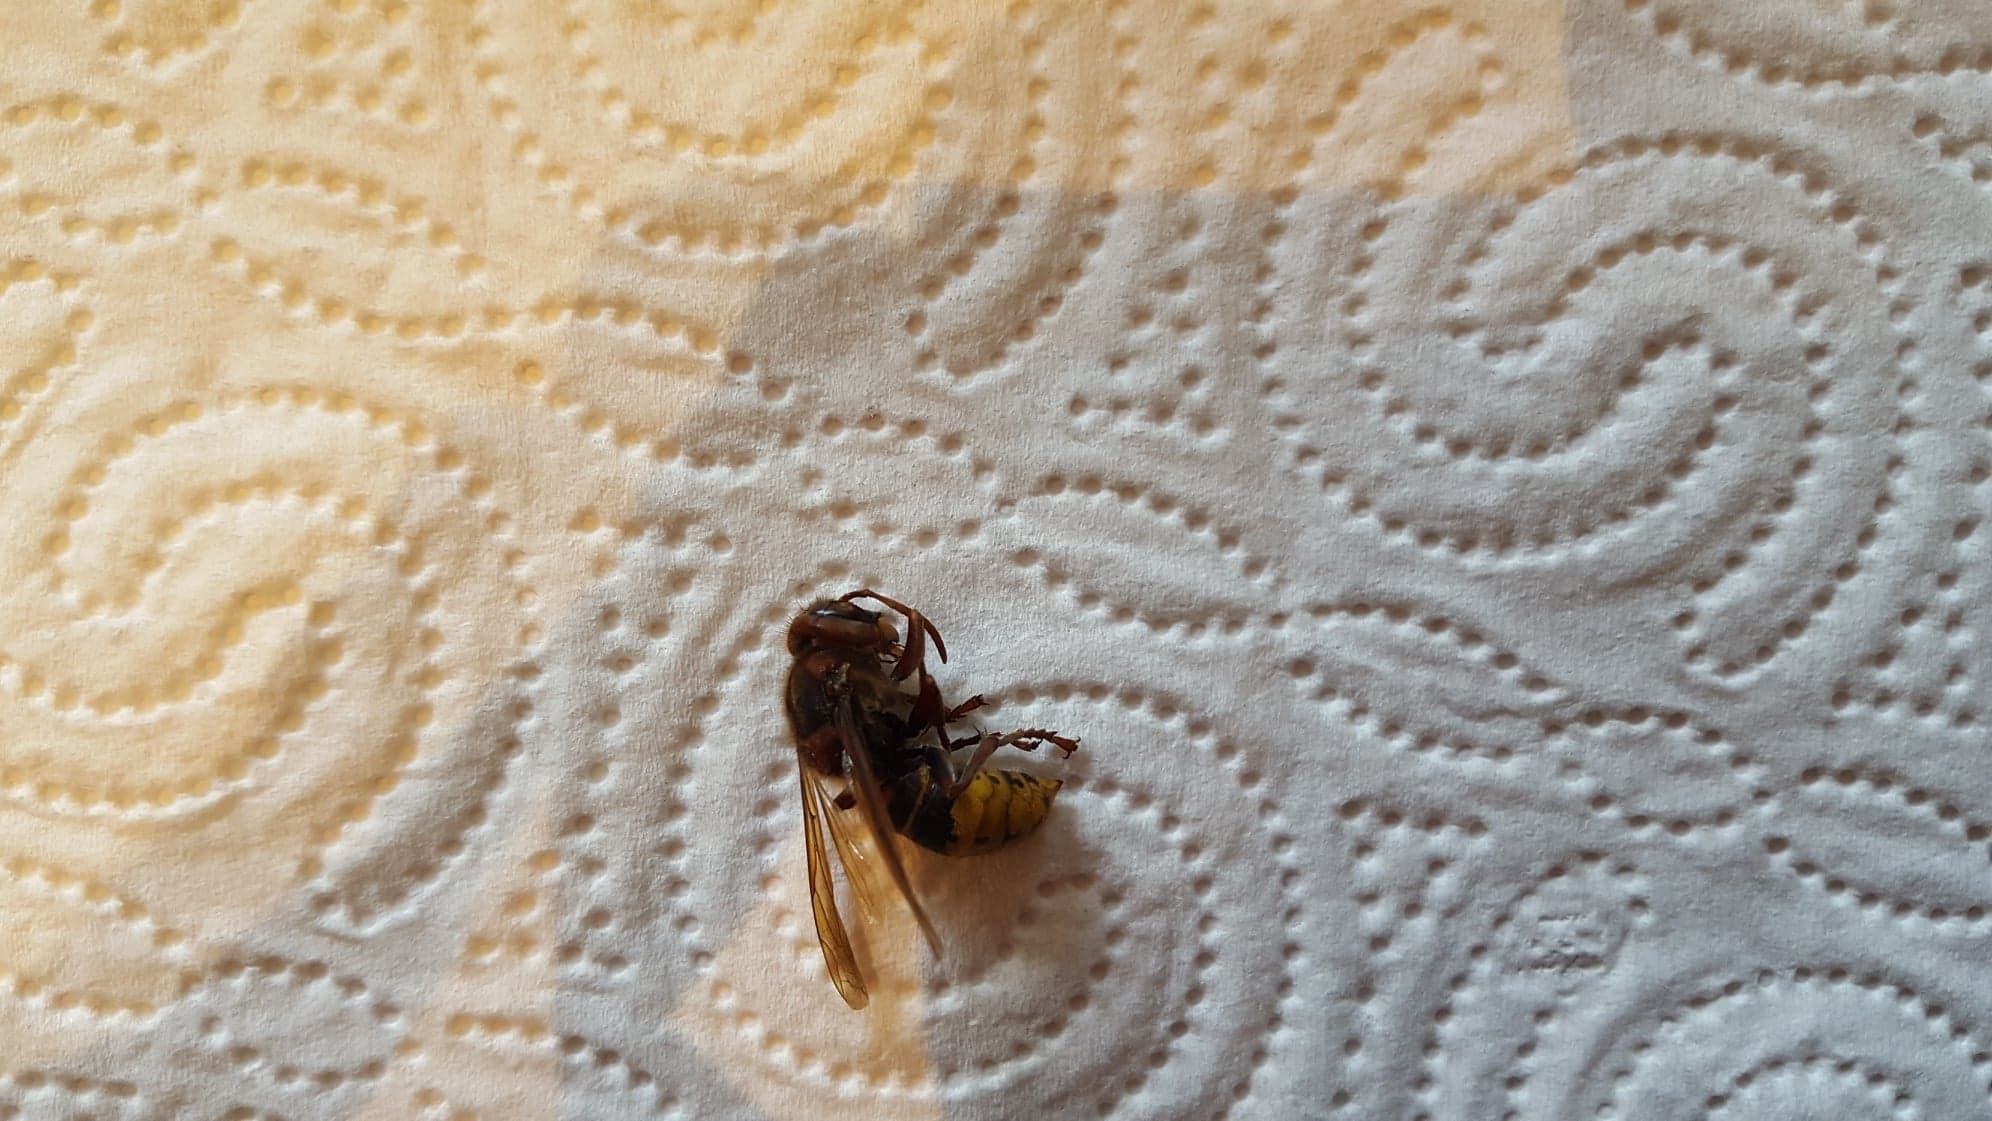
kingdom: Animalia
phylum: Arthropoda
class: Insecta
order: Hymenoptera
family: Vespidae
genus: Vespa
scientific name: Vespa crabro
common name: Hornet
